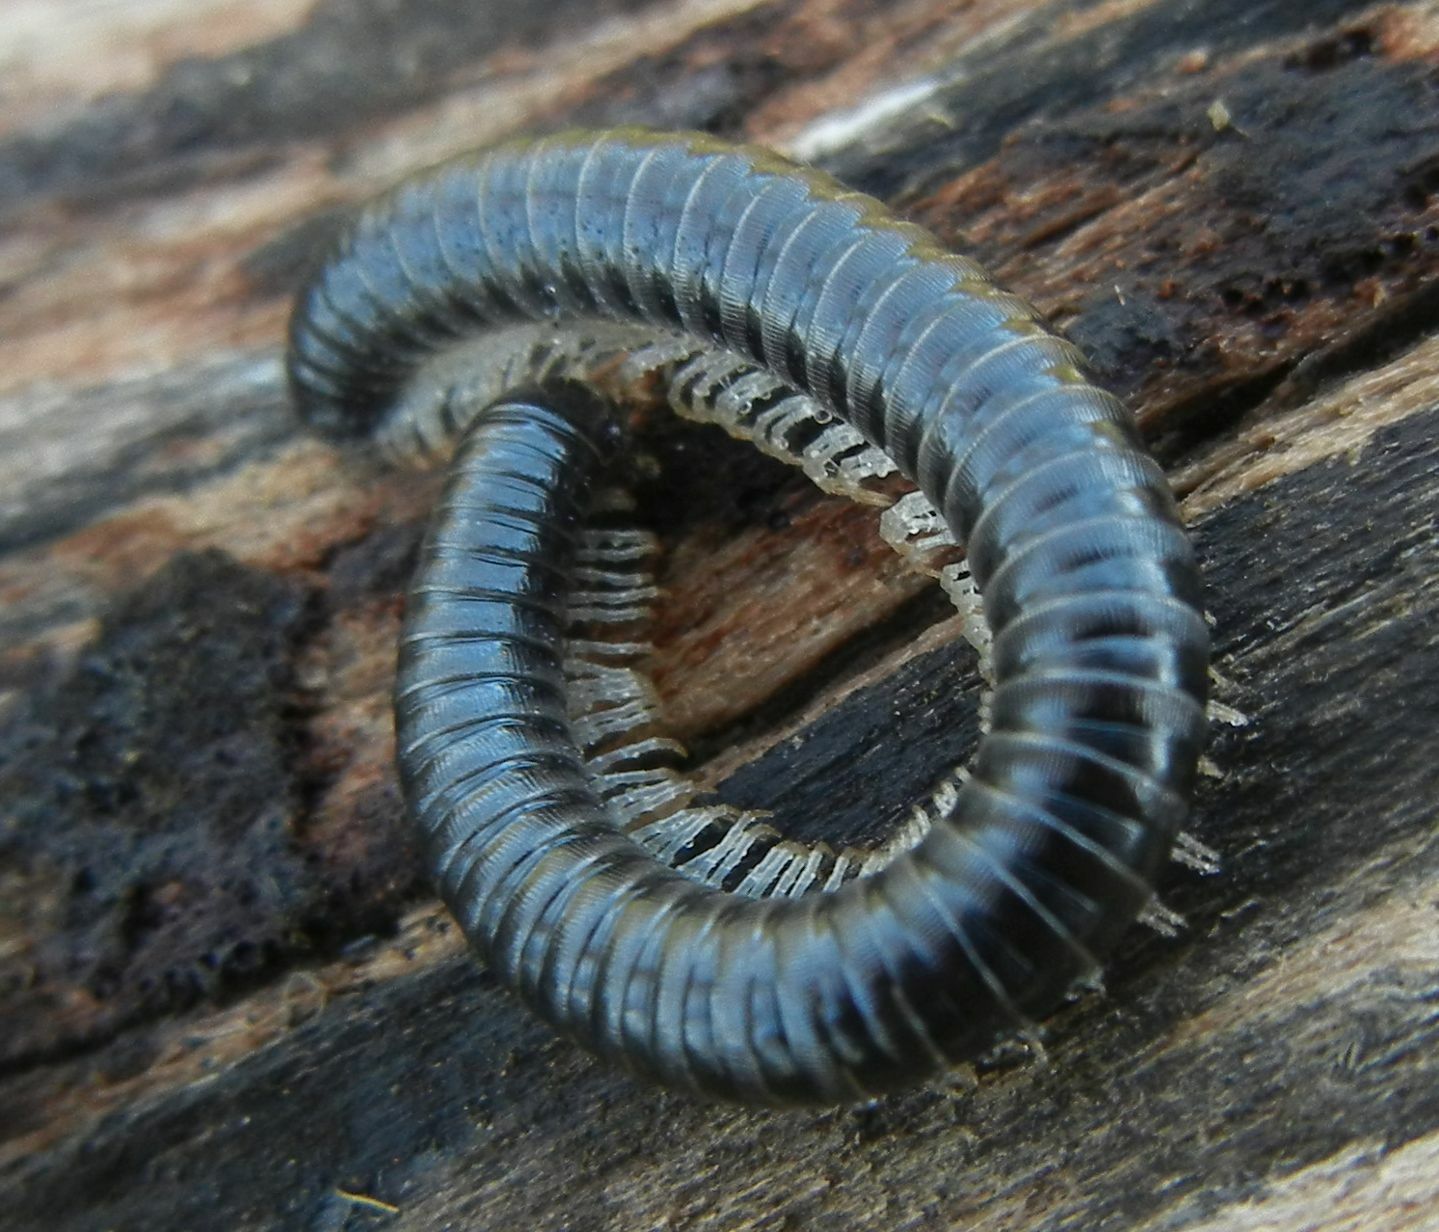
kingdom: Animalia
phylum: Arthropoda
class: Diplopoda
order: Julida
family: Julidae
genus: Tachypodoiulus
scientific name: Tachypodoiulus niger
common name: White-legged snake millipede
